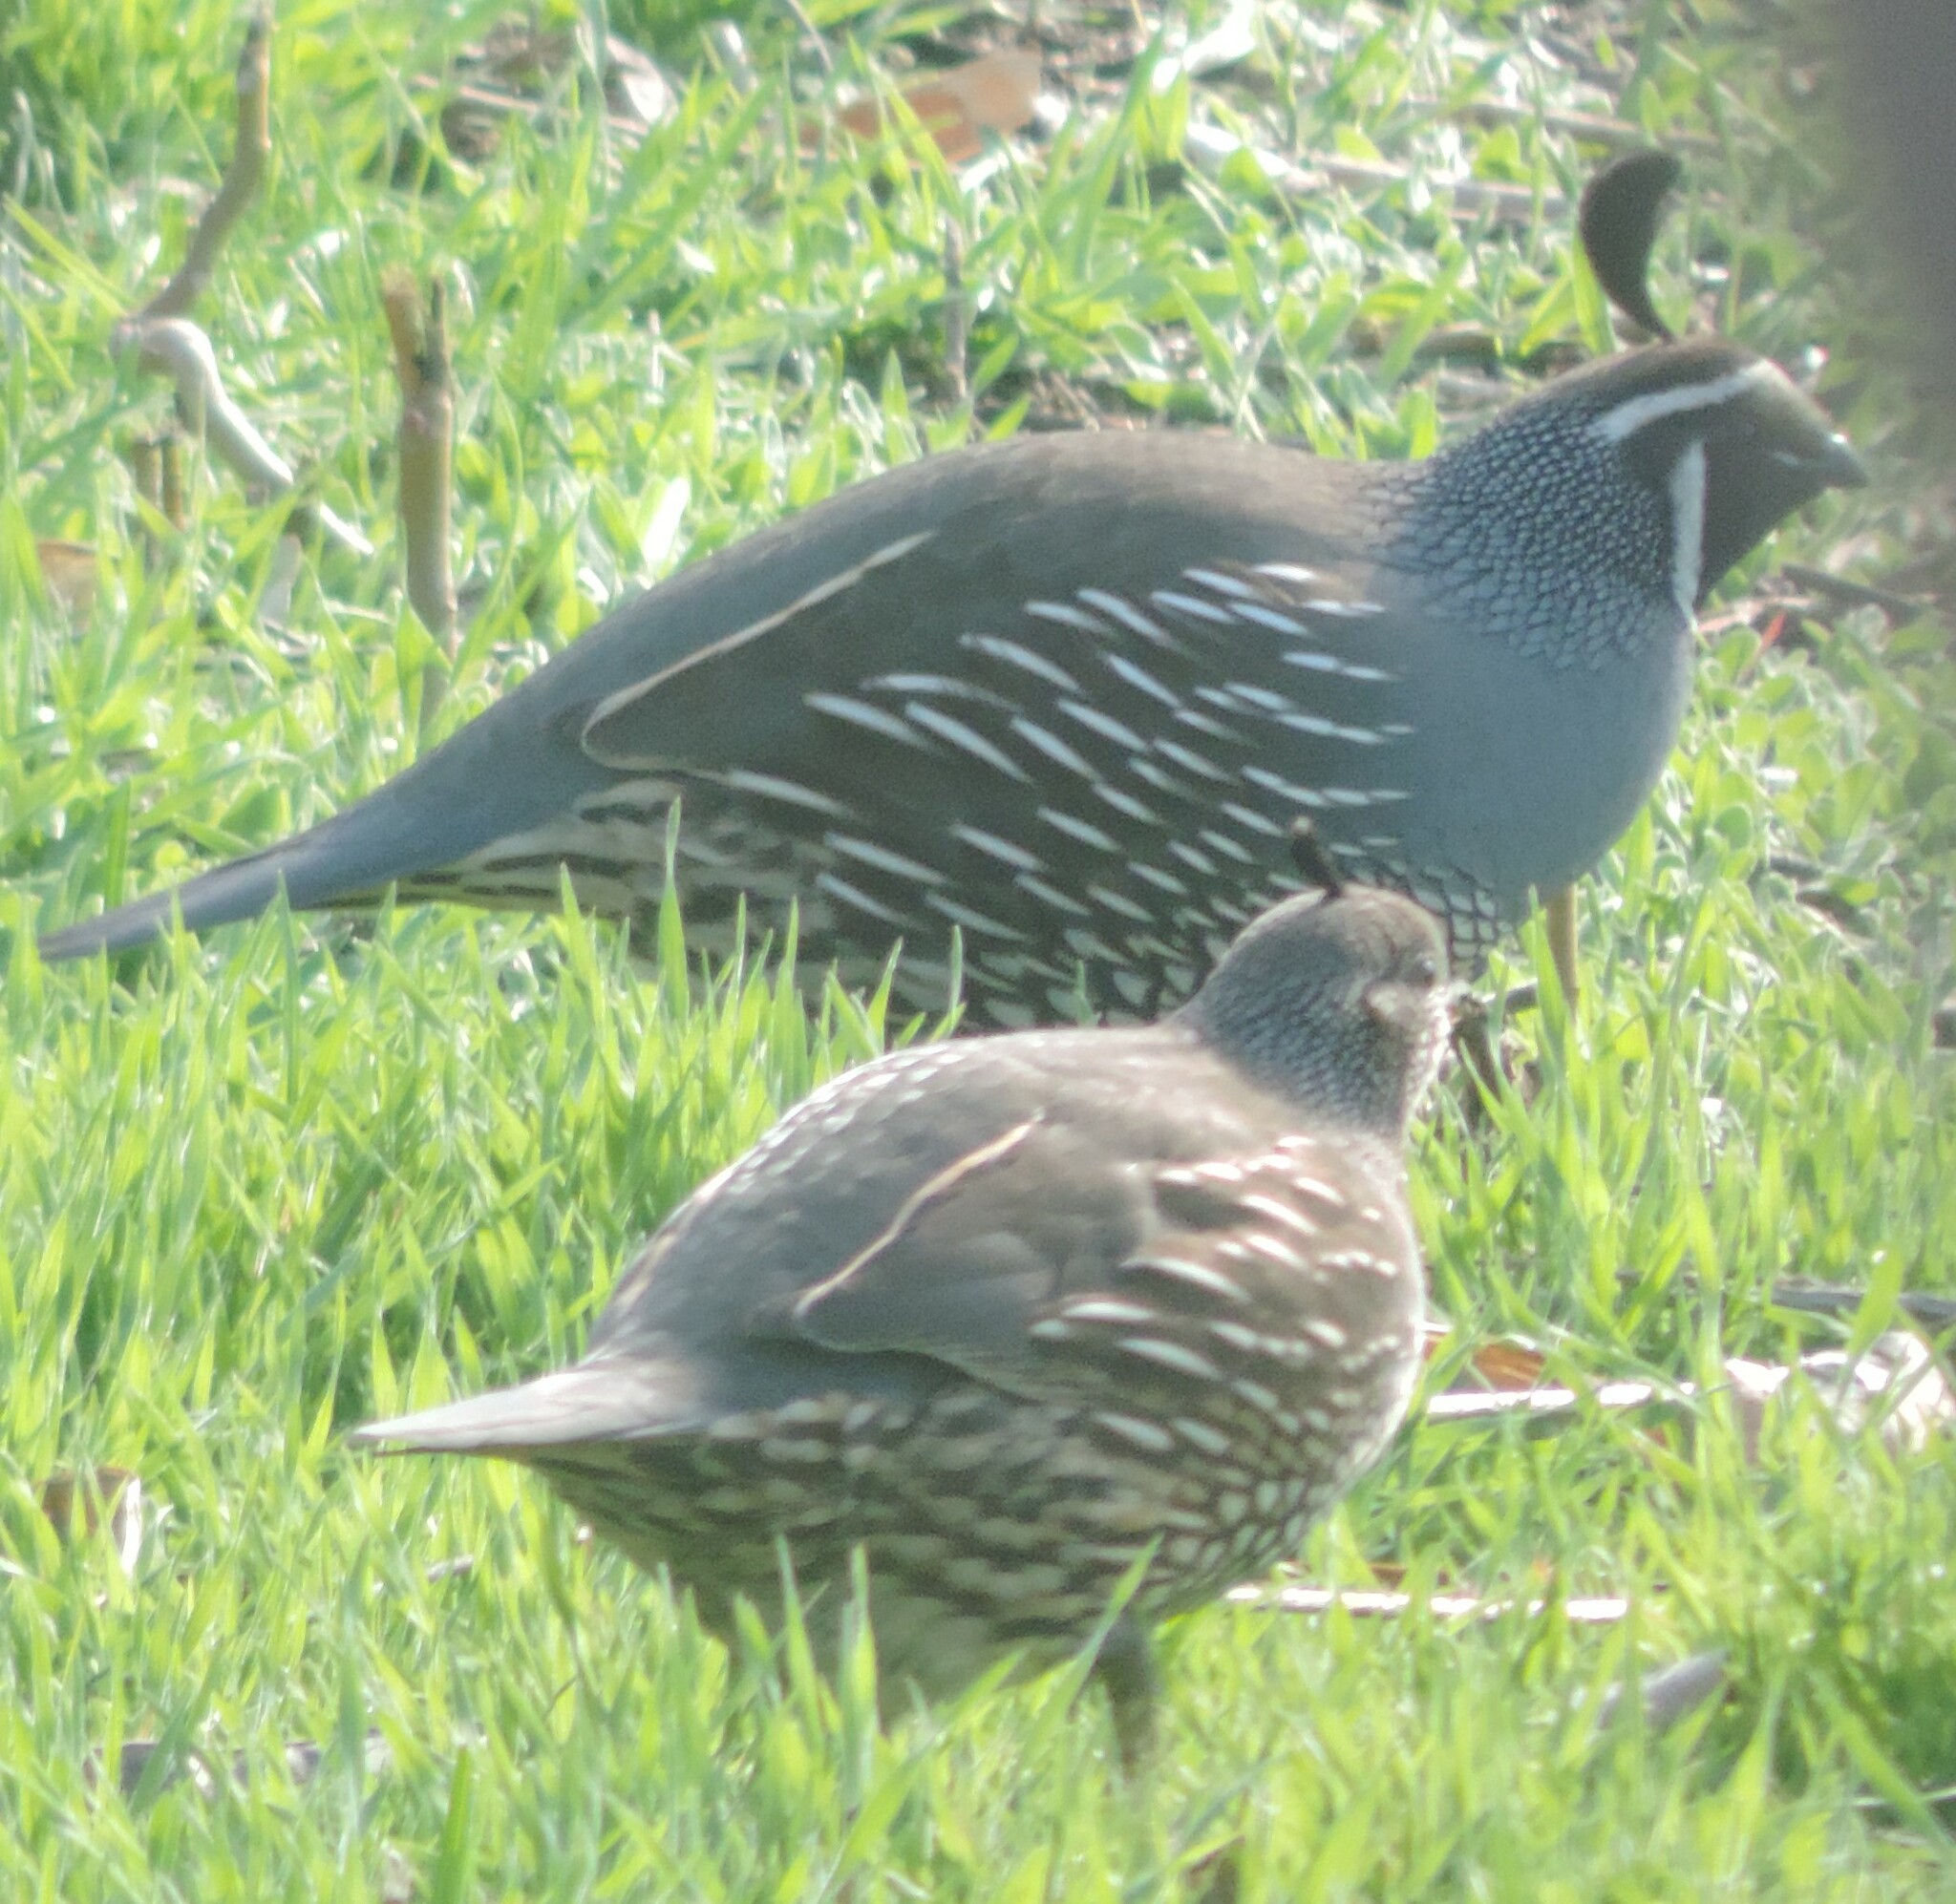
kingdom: Animalia
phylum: Chordata
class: Aves
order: Galliformes
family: Odontophoridae
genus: Callipepla
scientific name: Callipepla californica
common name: California quail
